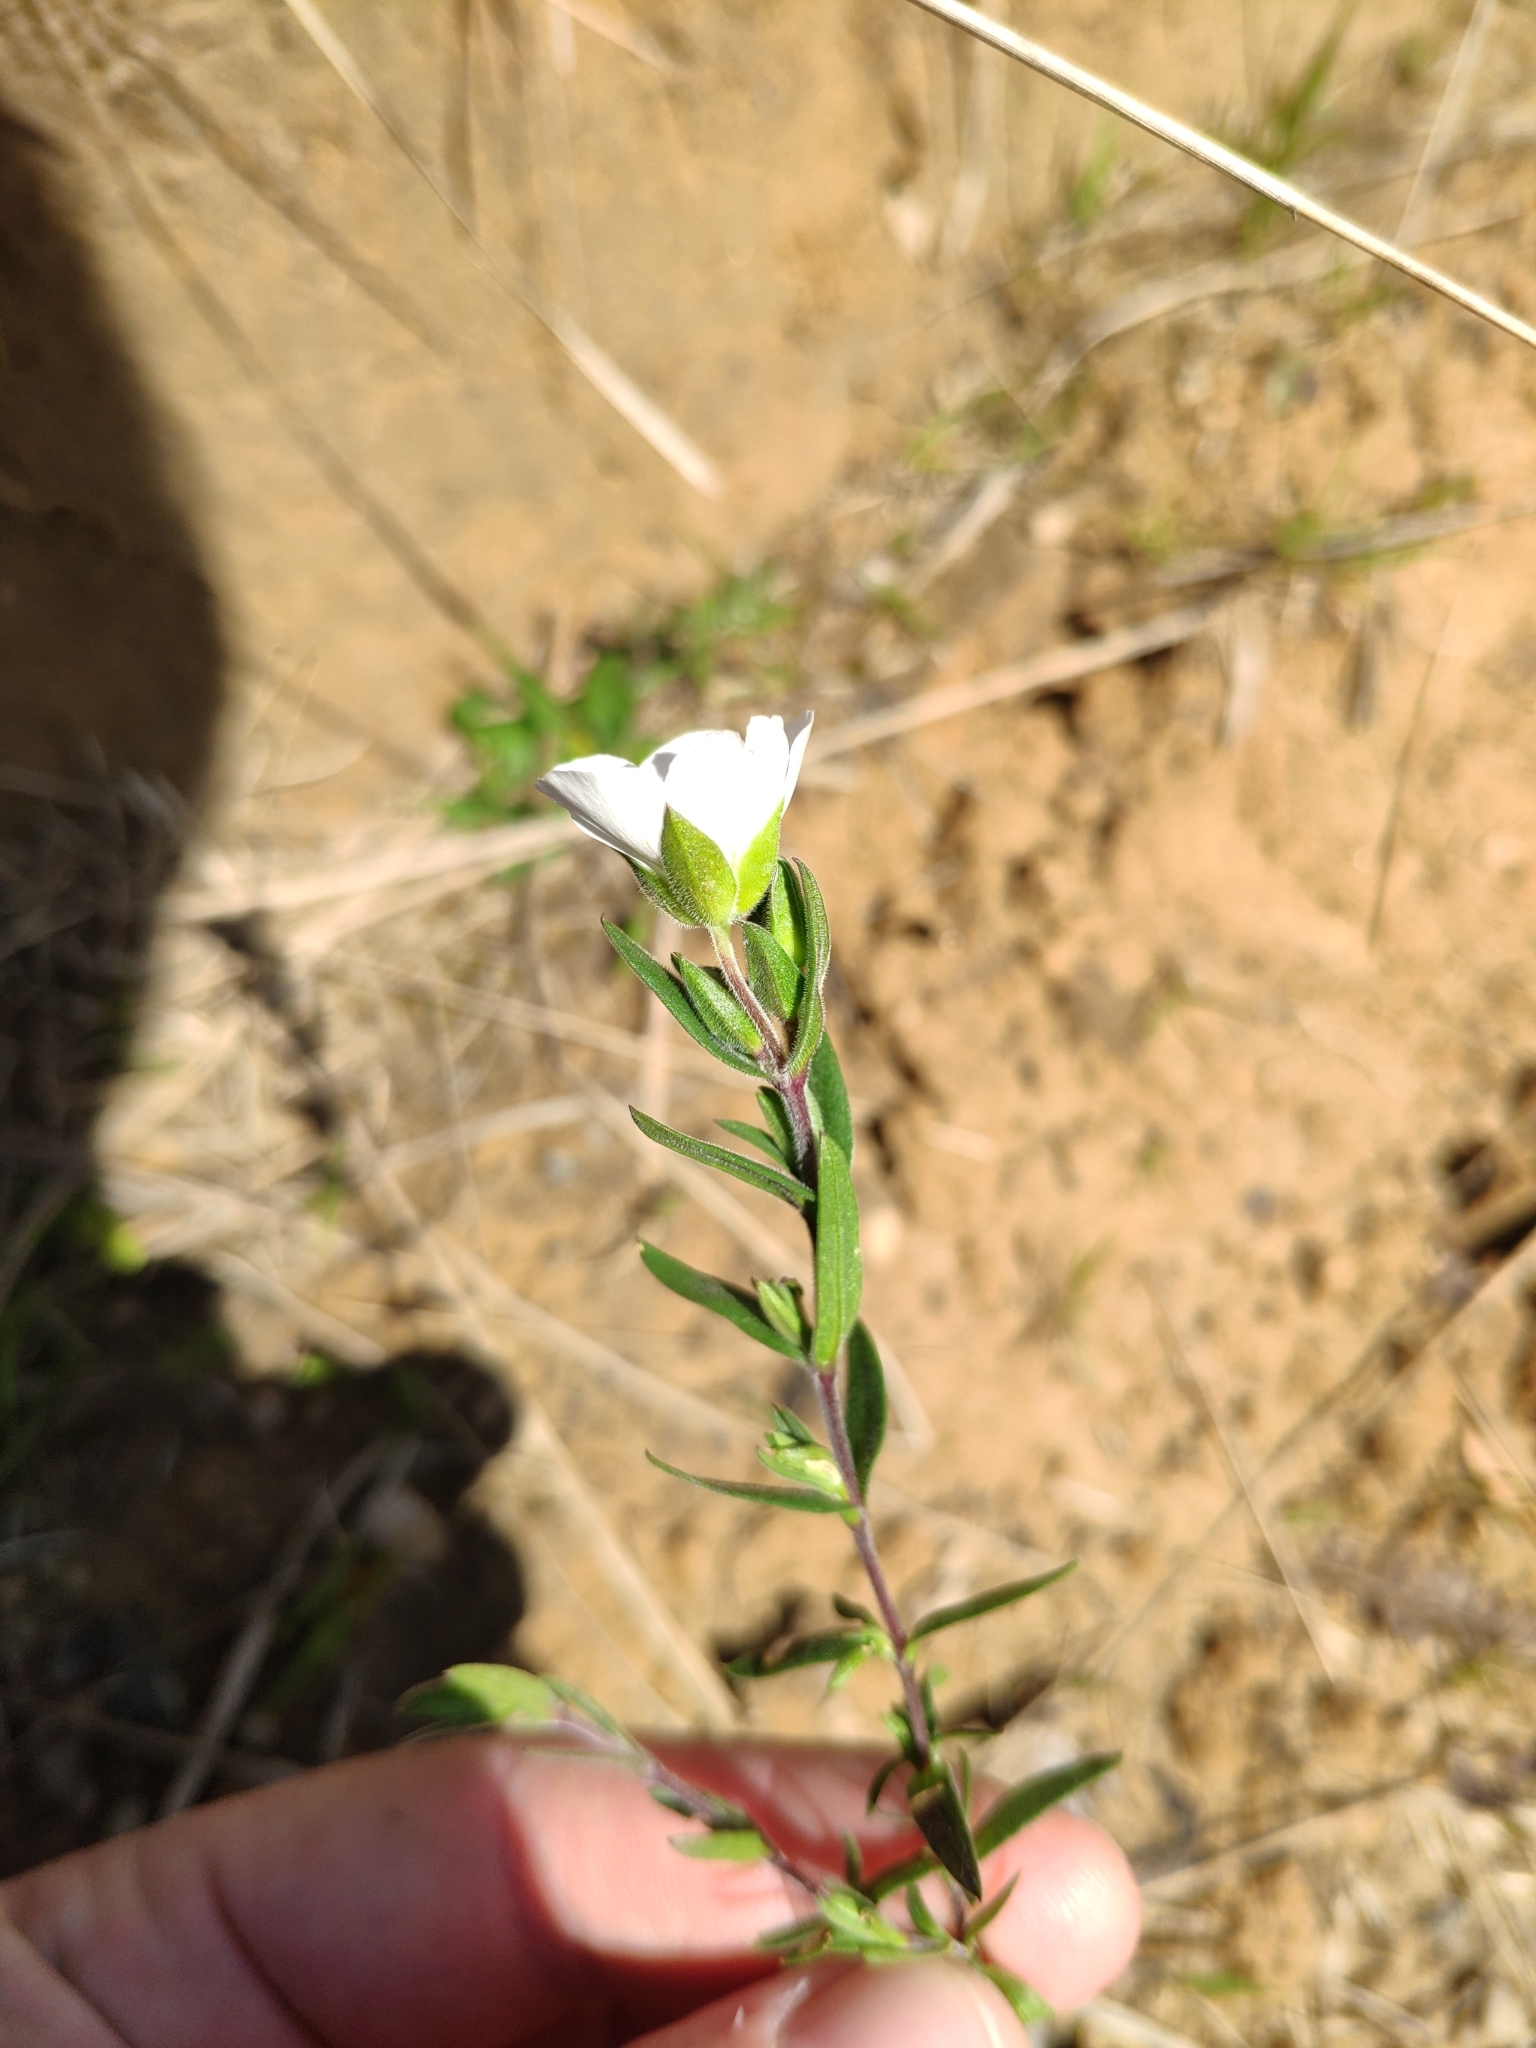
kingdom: Plantae
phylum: Tracheophyta
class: Magnoliopsida
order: Caryophyllales
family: Caryophyllaceae
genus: Arenaria
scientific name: Arenaria montana
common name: Mountain sandwort
